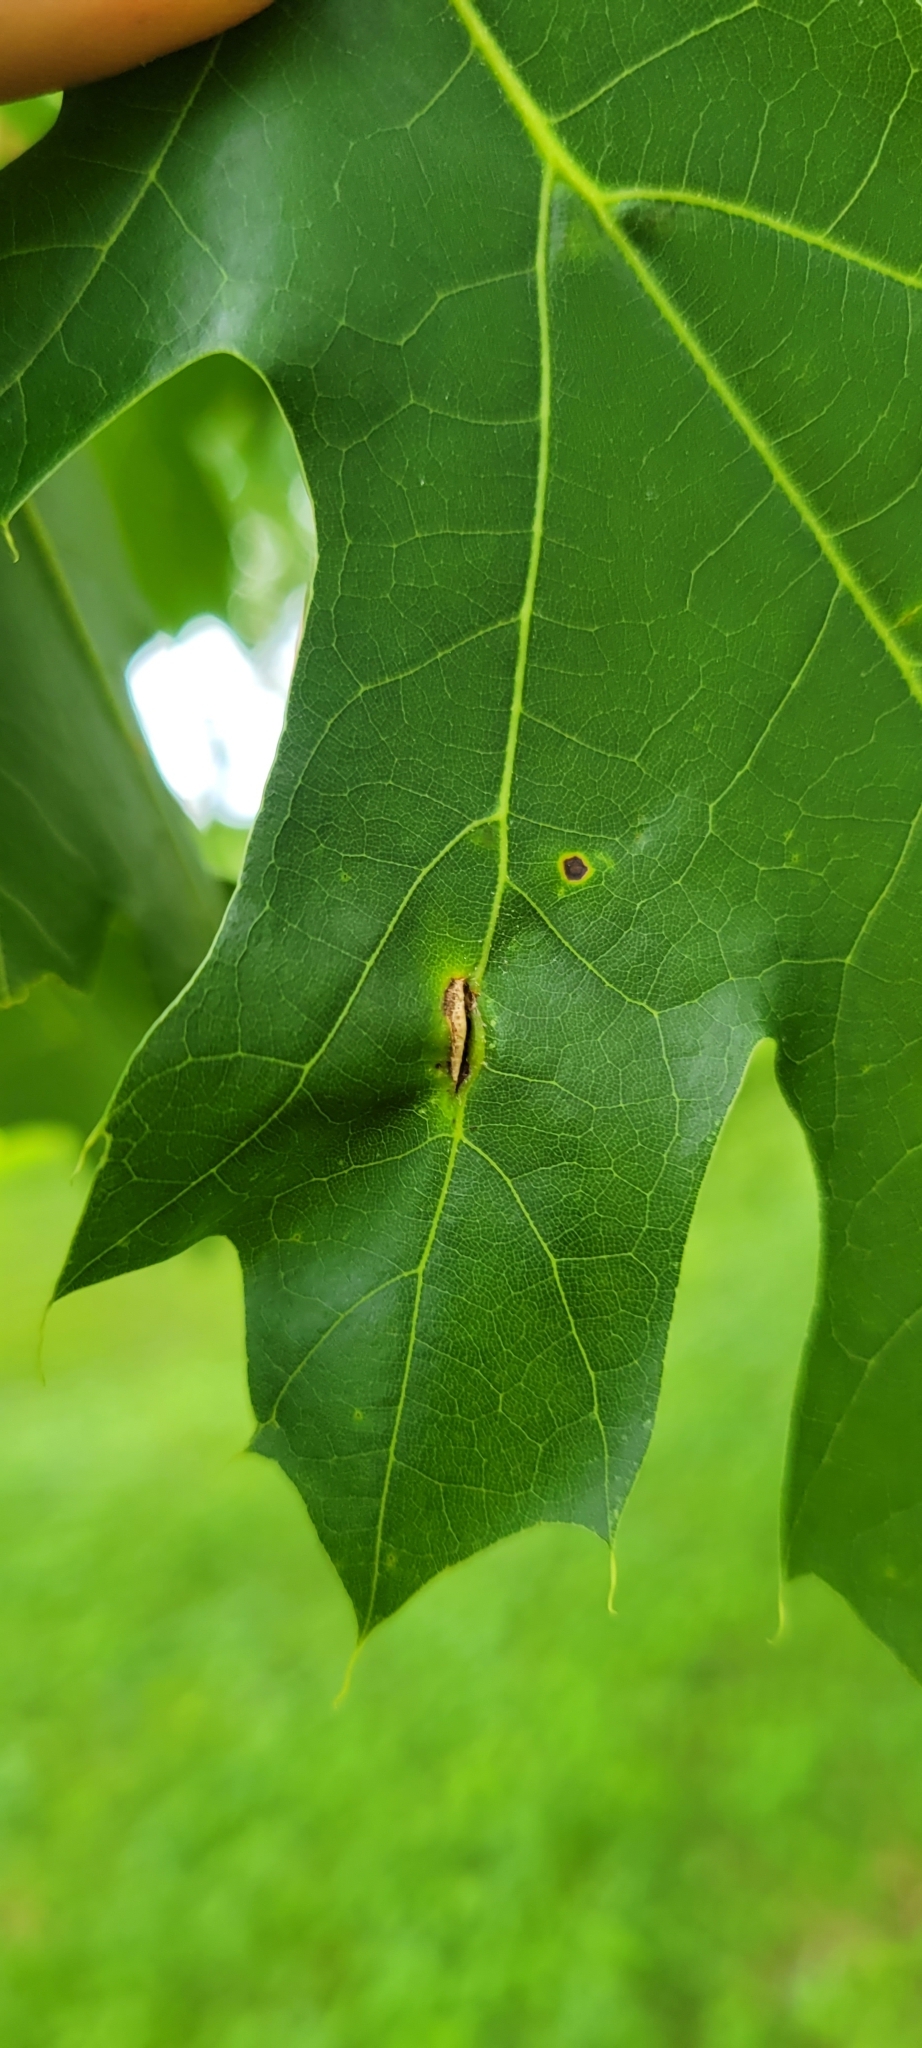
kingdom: Animalia
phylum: Arthropoda
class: Insecta
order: Diptera
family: Cecidomyiidae
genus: Macrodiplosis
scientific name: Macrodiplosis majalis
